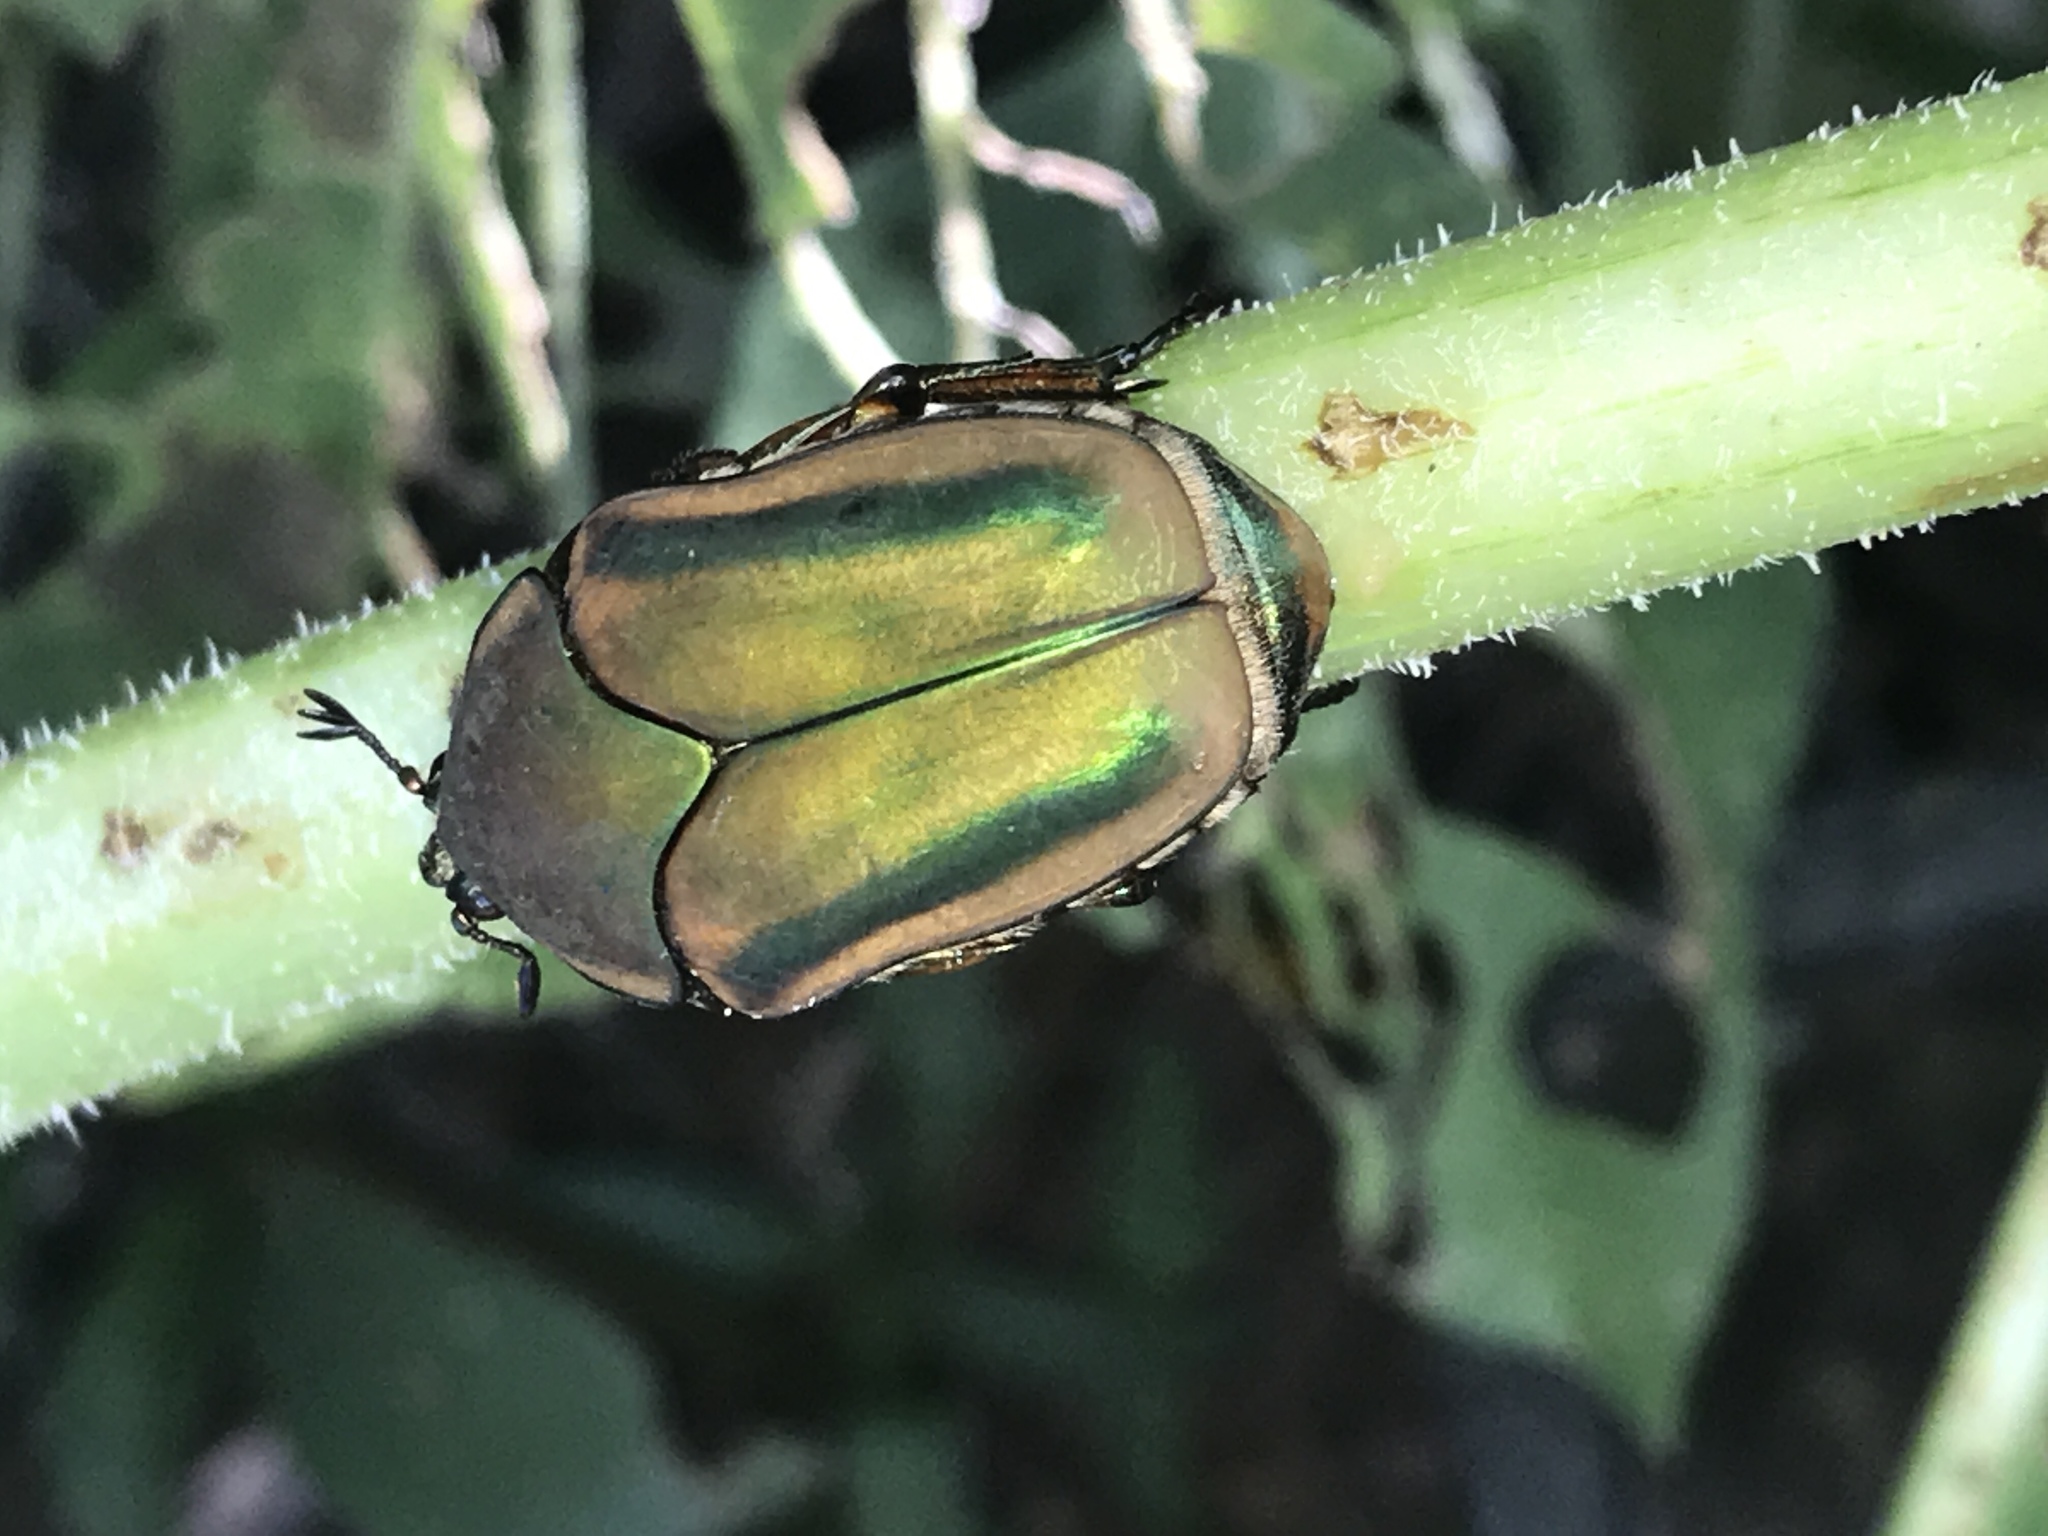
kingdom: Animalia
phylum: Arthropoda
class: Insecta
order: Coleoptera
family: Scarabaeidae
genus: Cotinis
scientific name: Cotinis nitida
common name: Common green june beetle
